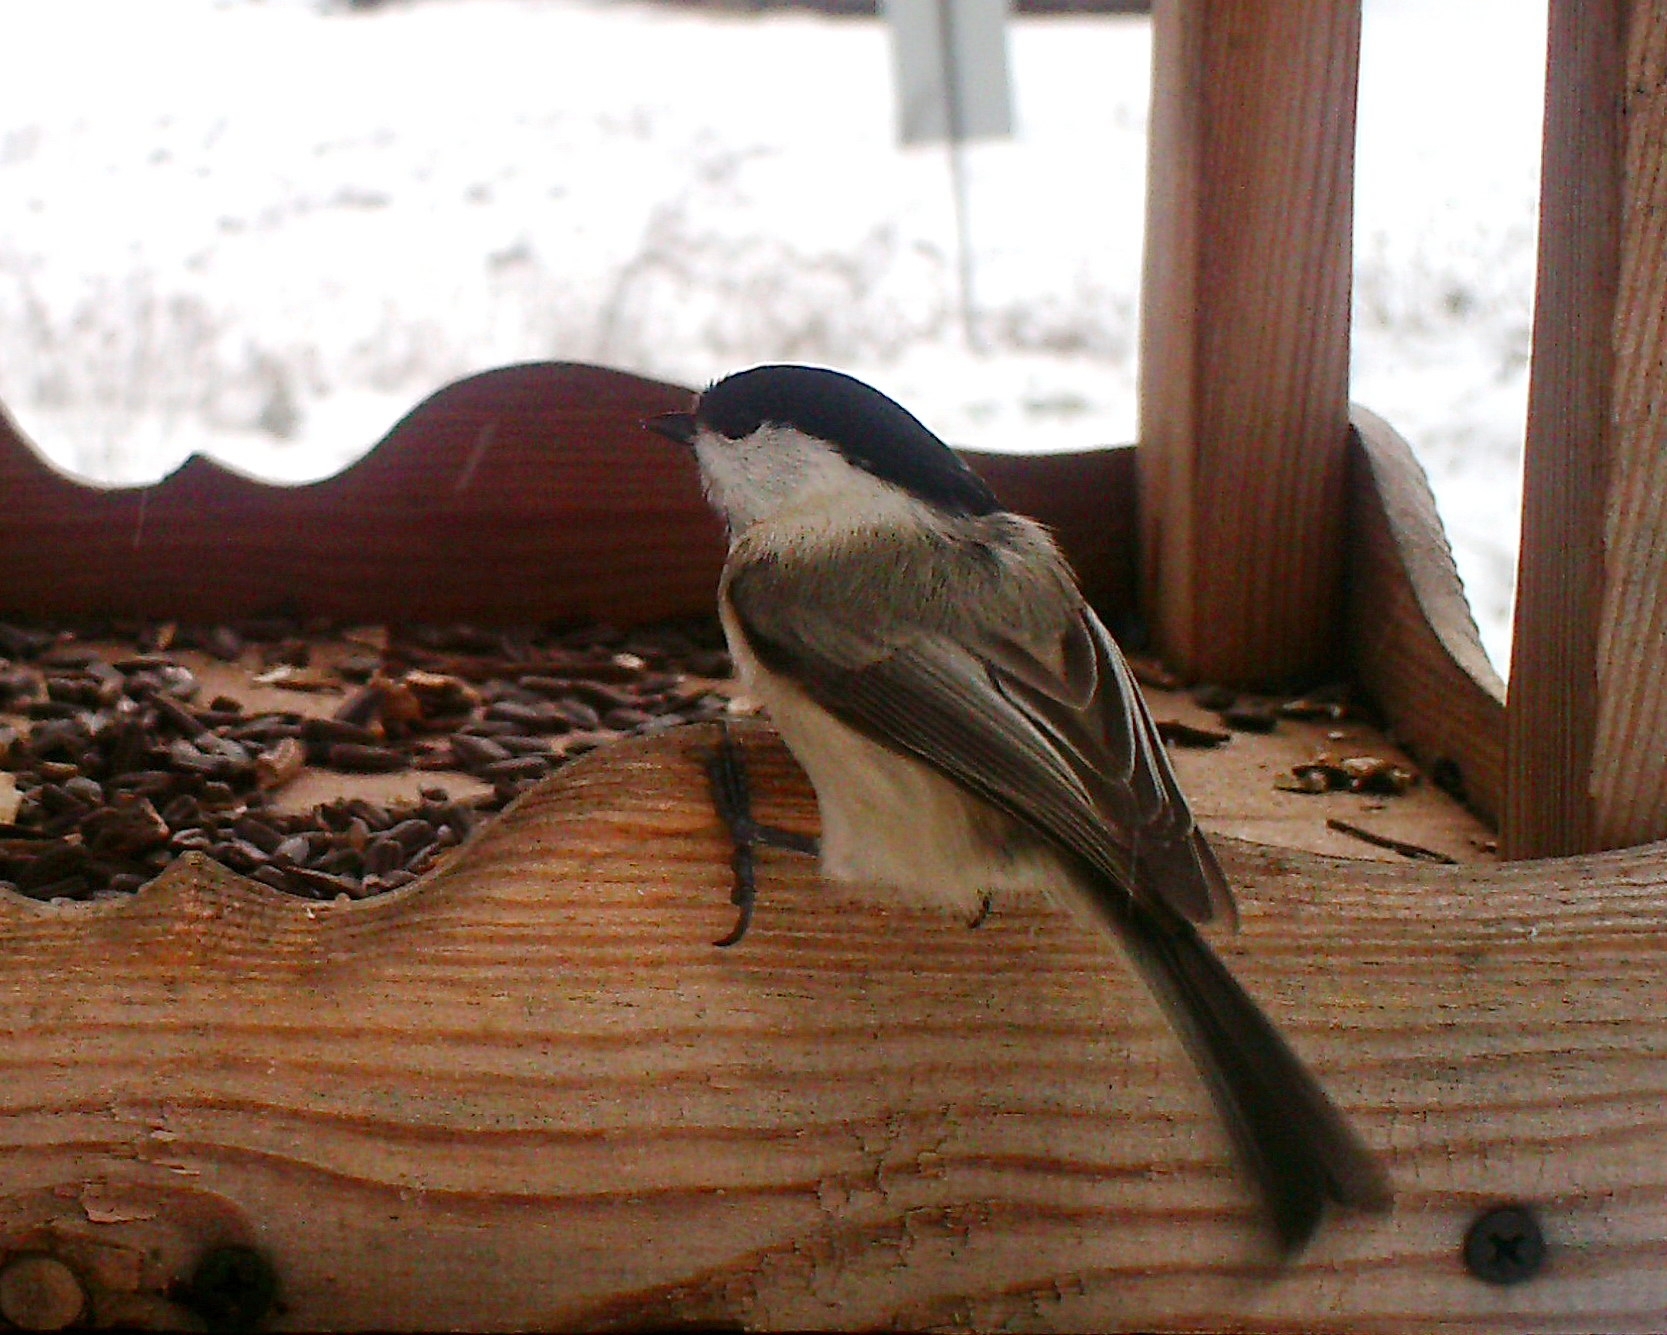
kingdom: Animalia
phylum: Chordata
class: Aves
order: Passeriformes
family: Paridae
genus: Poecile
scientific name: Poecile montanus
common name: Willow tit
